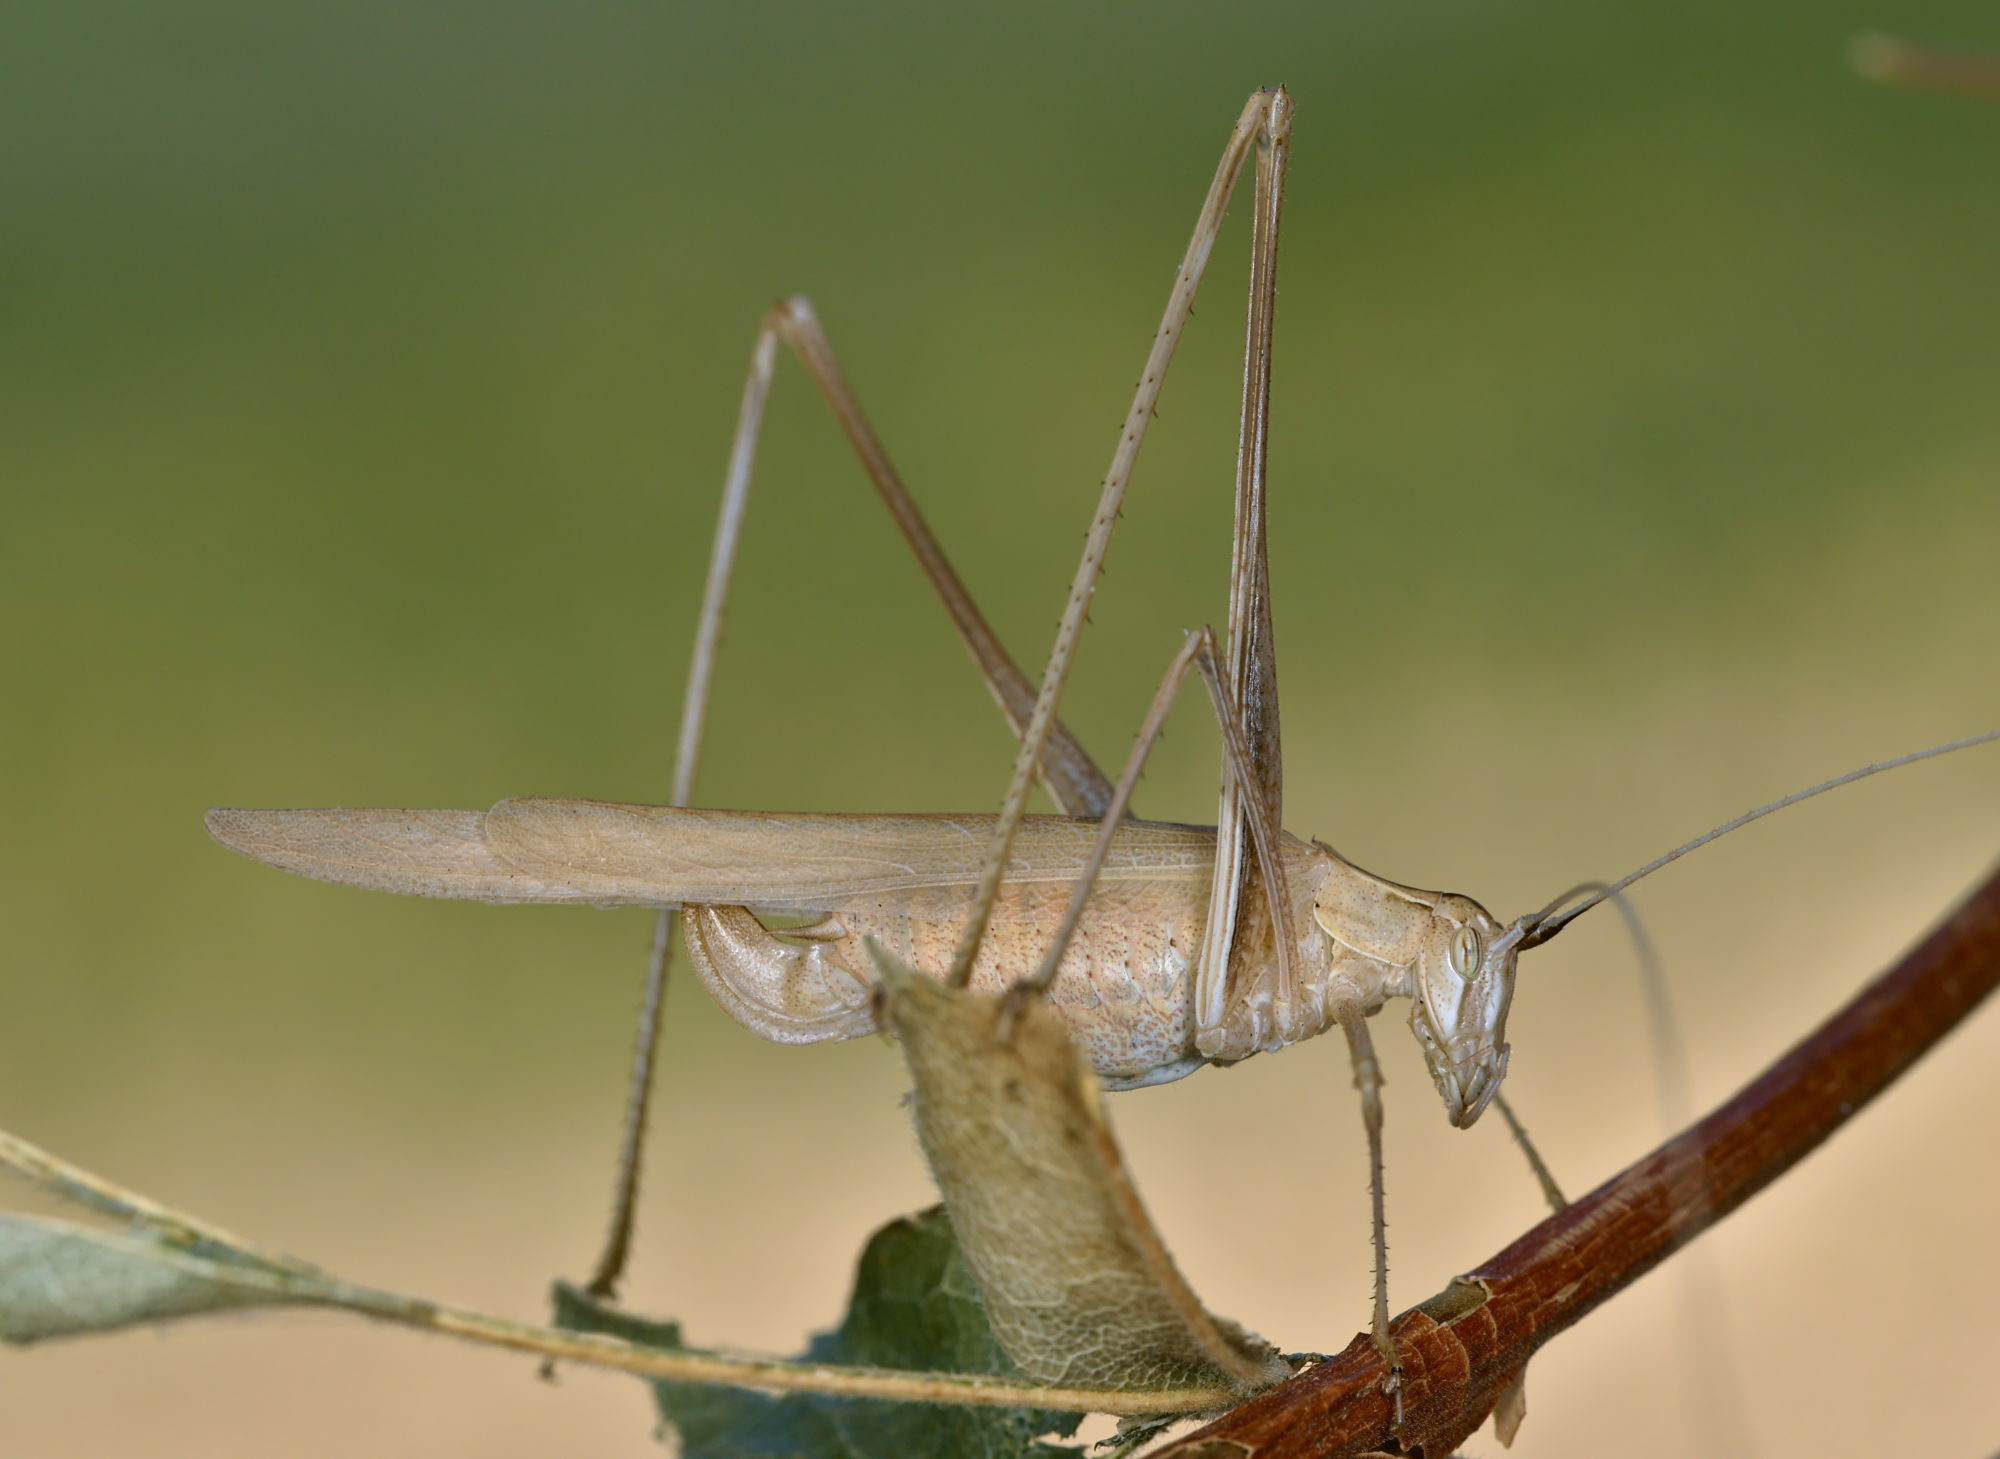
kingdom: Animalia
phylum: Arthropoda
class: Insecta
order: Orthoptera
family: Tettigoniidae
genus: Tylopsis
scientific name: Tylopsis lilifolia
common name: Lily bush-cricket
